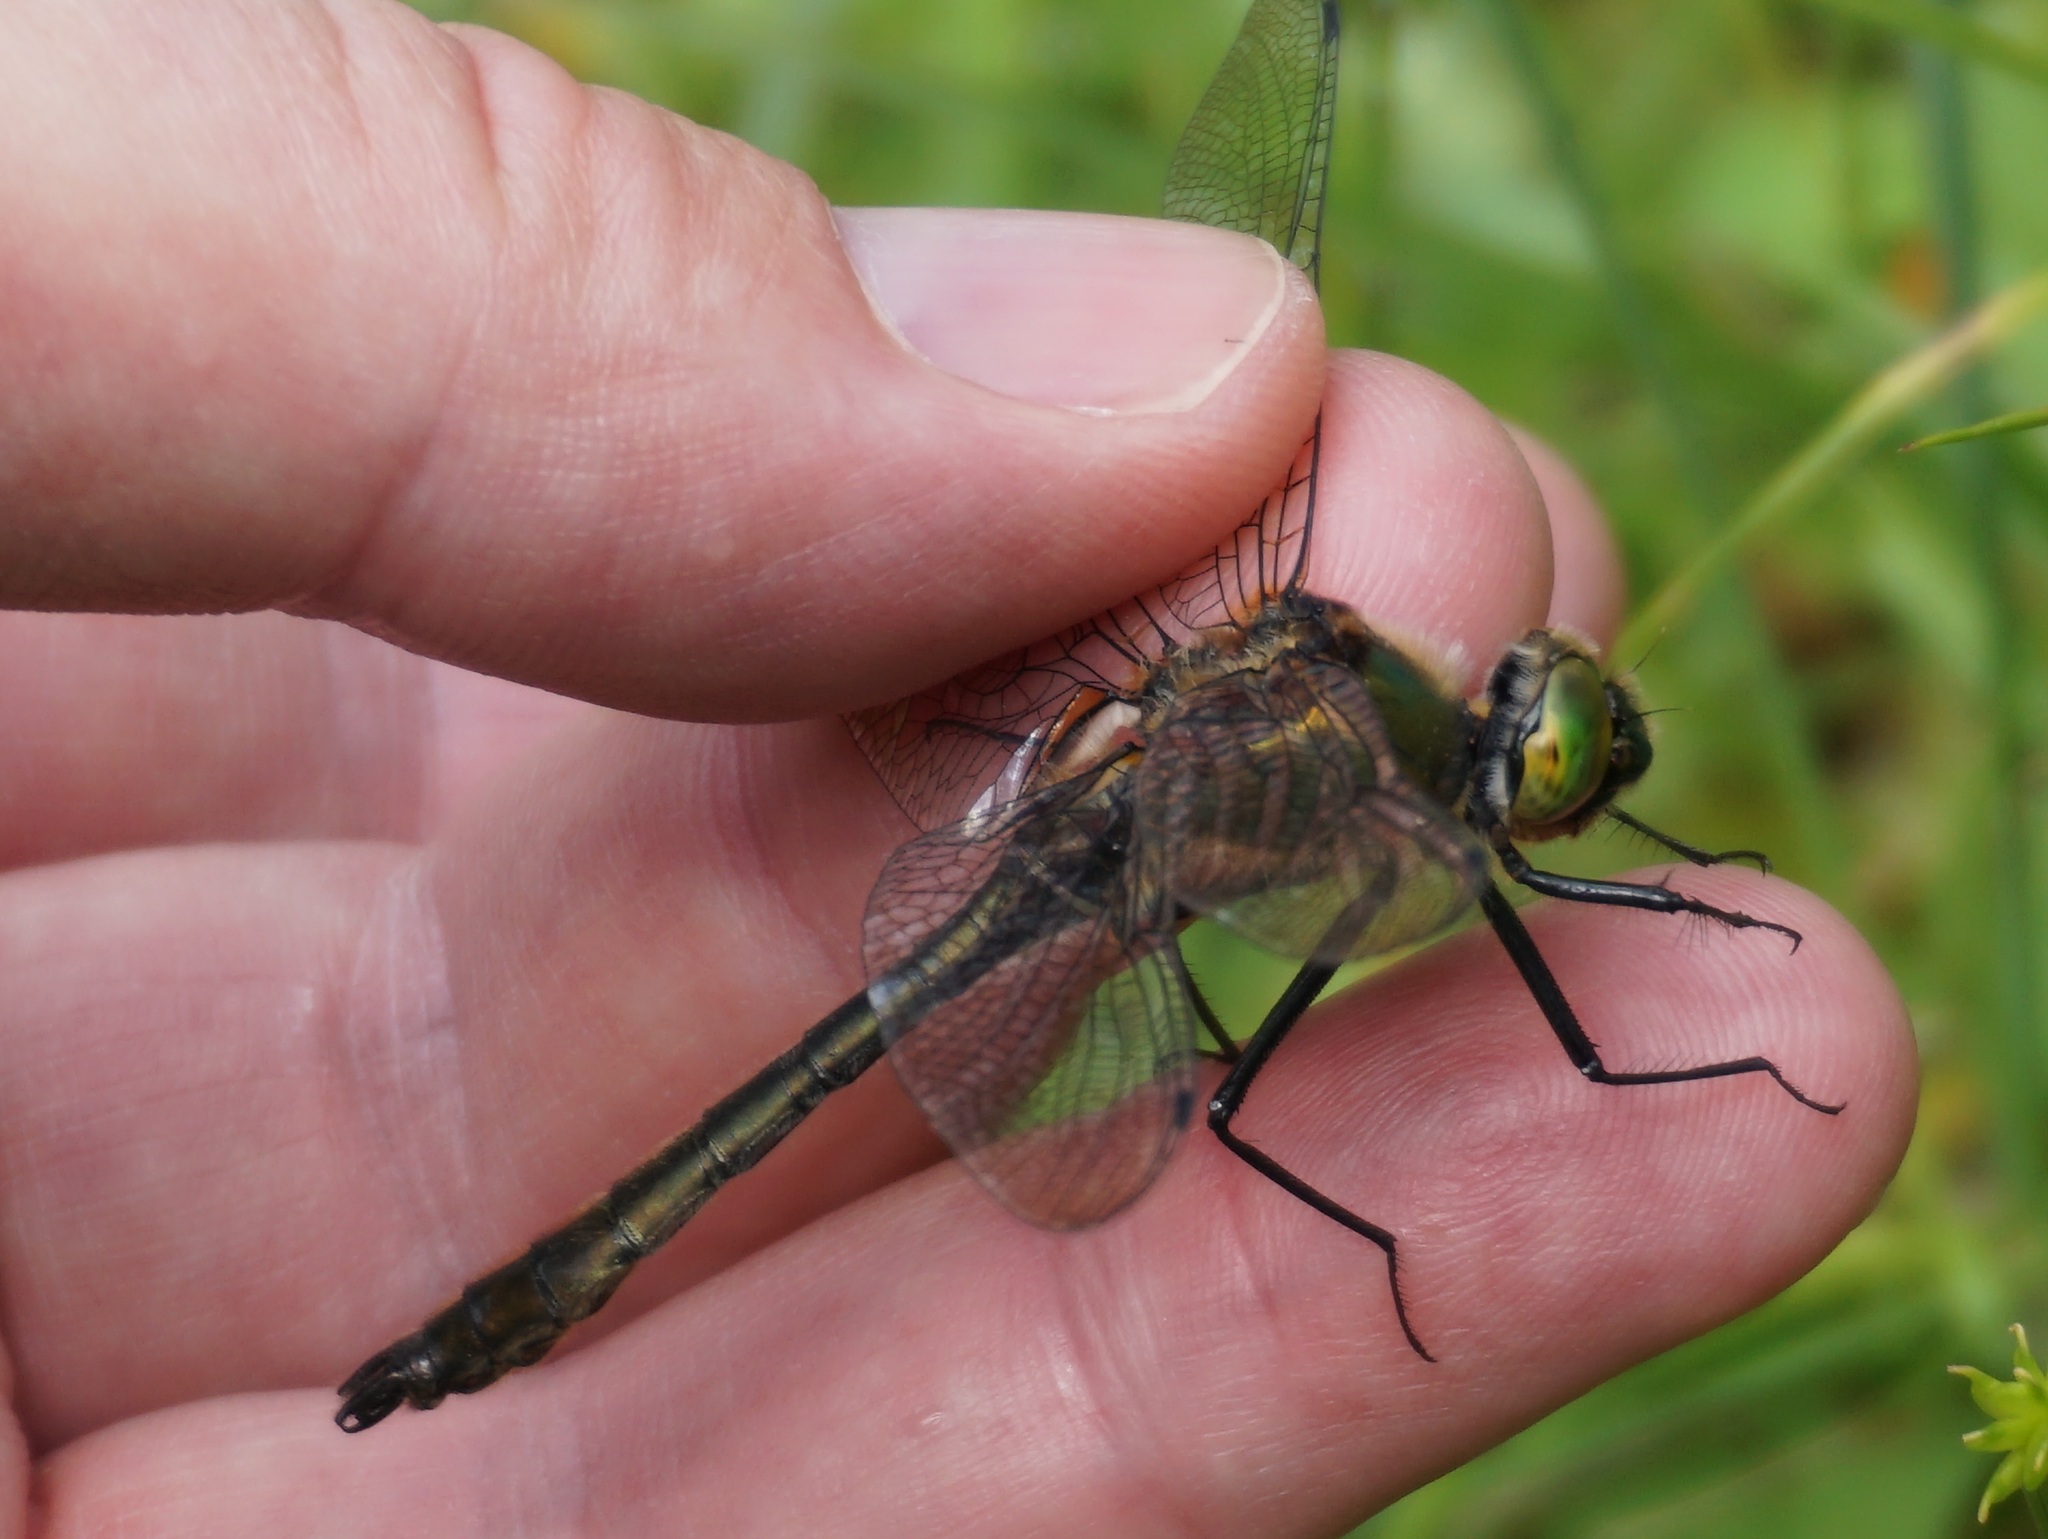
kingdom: Animalia
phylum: Arthropoda
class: Insecta
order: Odonata
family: Corduliidae
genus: Cordulia
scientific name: Cordulia aenea
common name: Downy emerald
